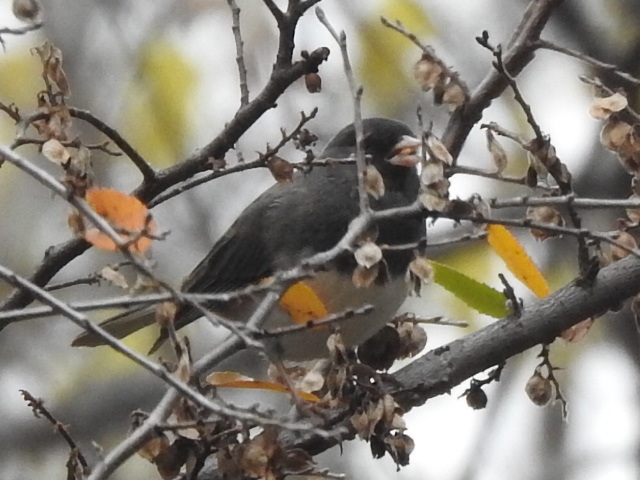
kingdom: Animalia
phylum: Chordata
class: Aves
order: Passeriformes
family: Passerellidae
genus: Junco
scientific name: Junco hyemalis
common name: Dark-eyed junco
